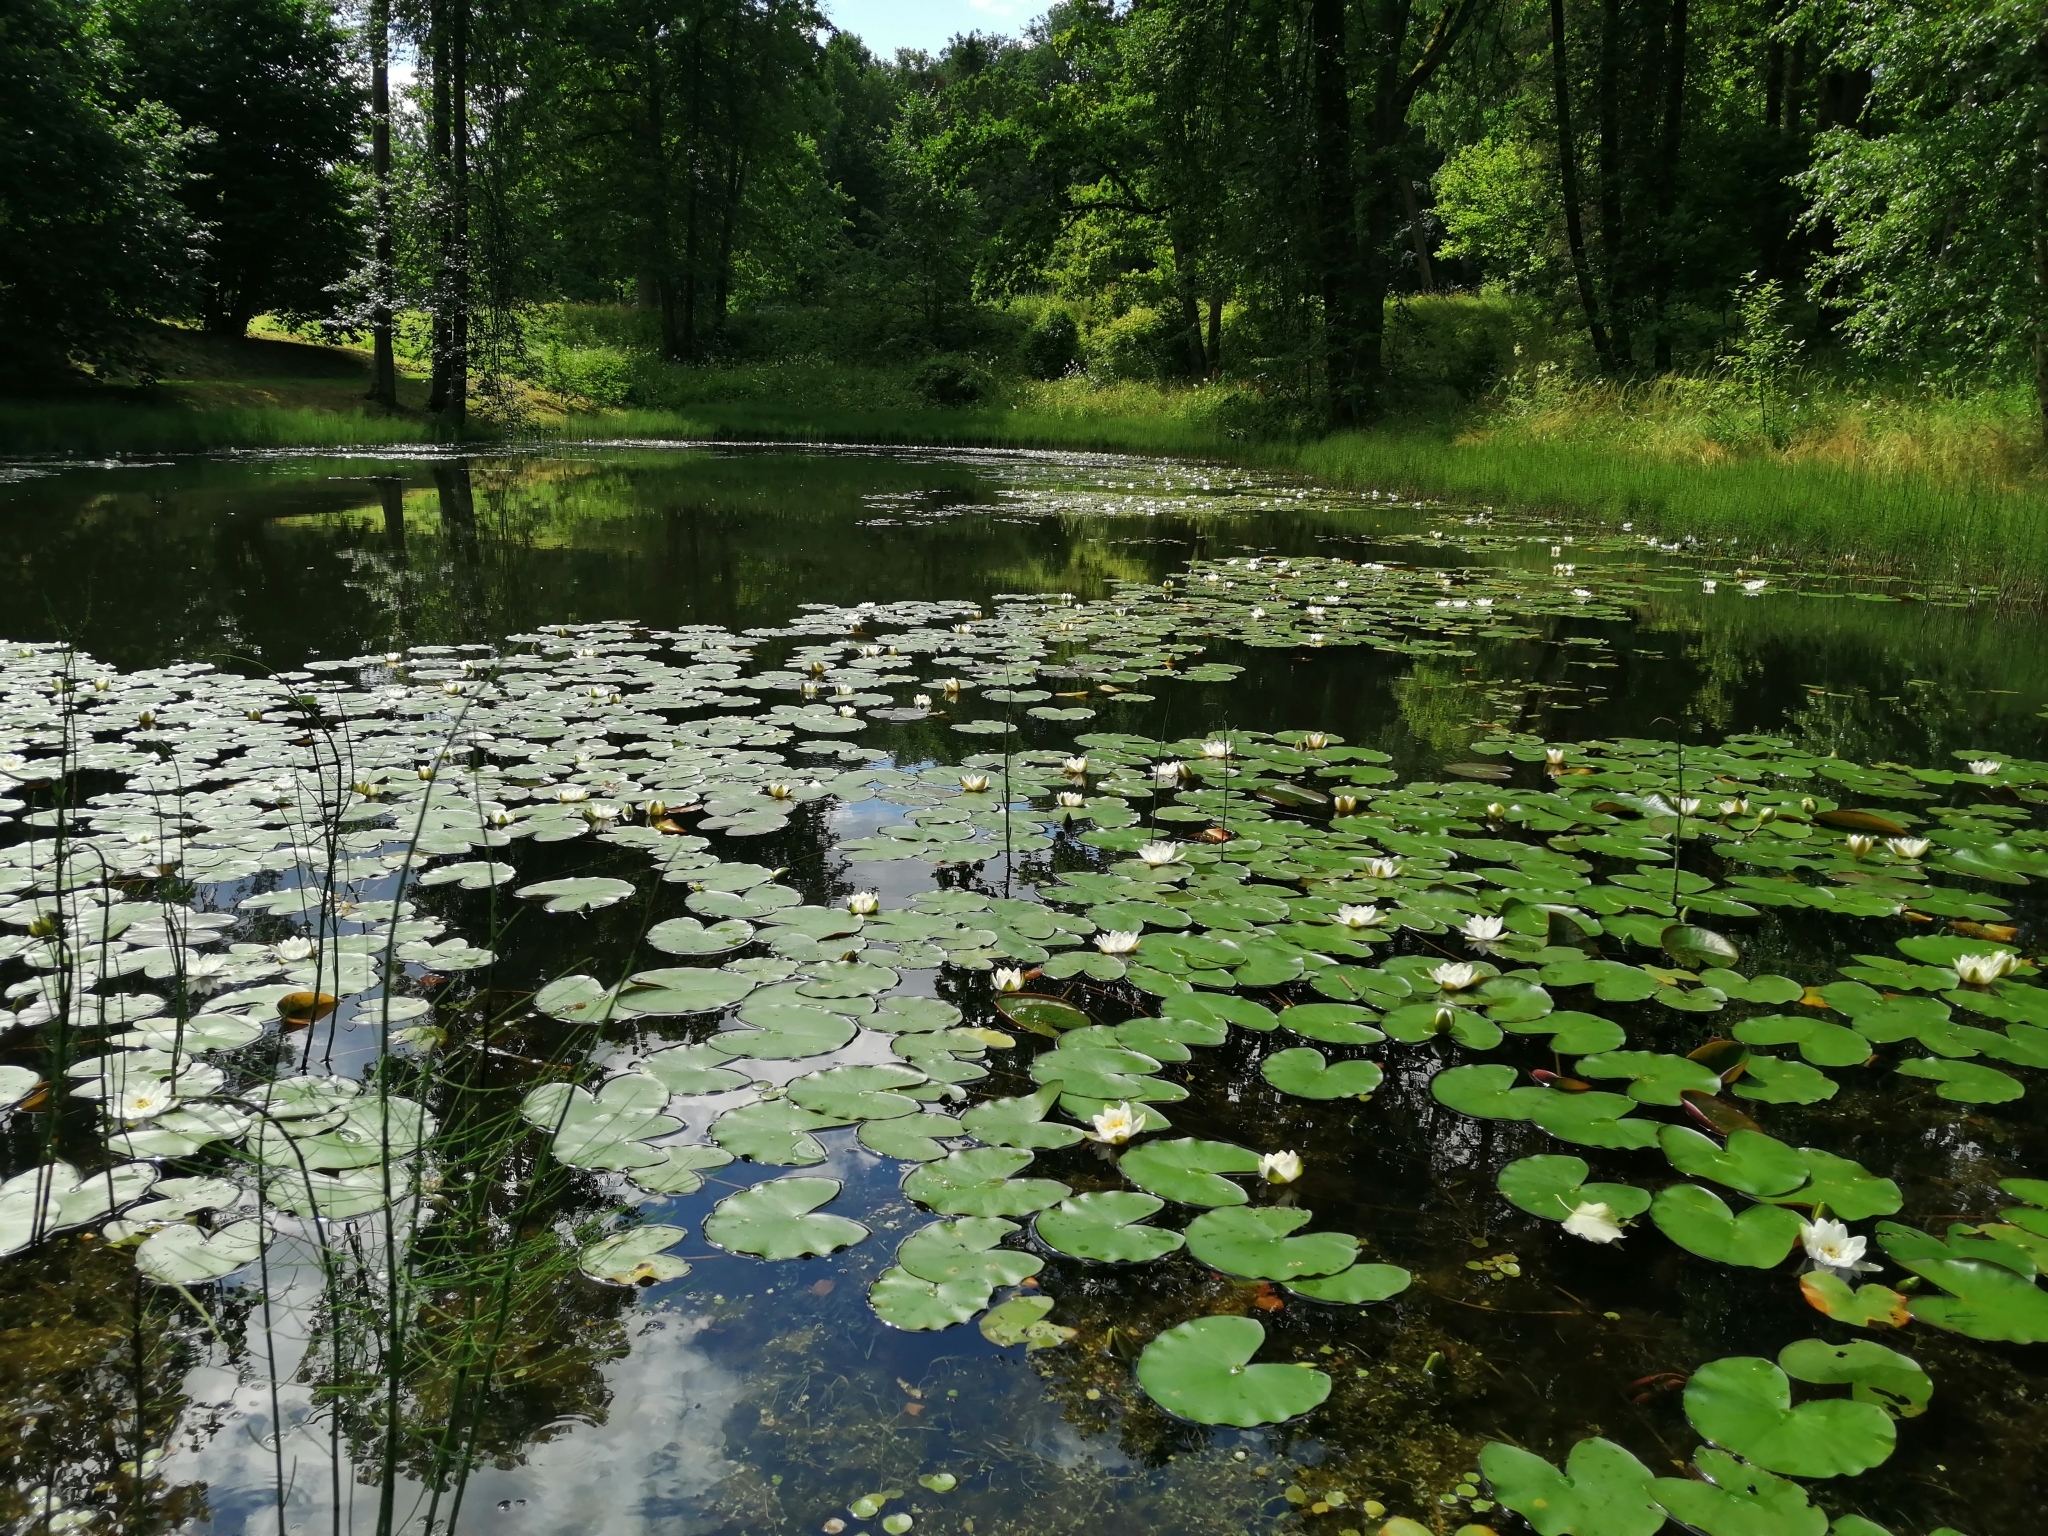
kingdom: Plantae
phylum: Tracheophyta
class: Magnoliopsida
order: Nymphaeales
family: Nymphaeaceae
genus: Nymphaea
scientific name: Nymphaea candida
